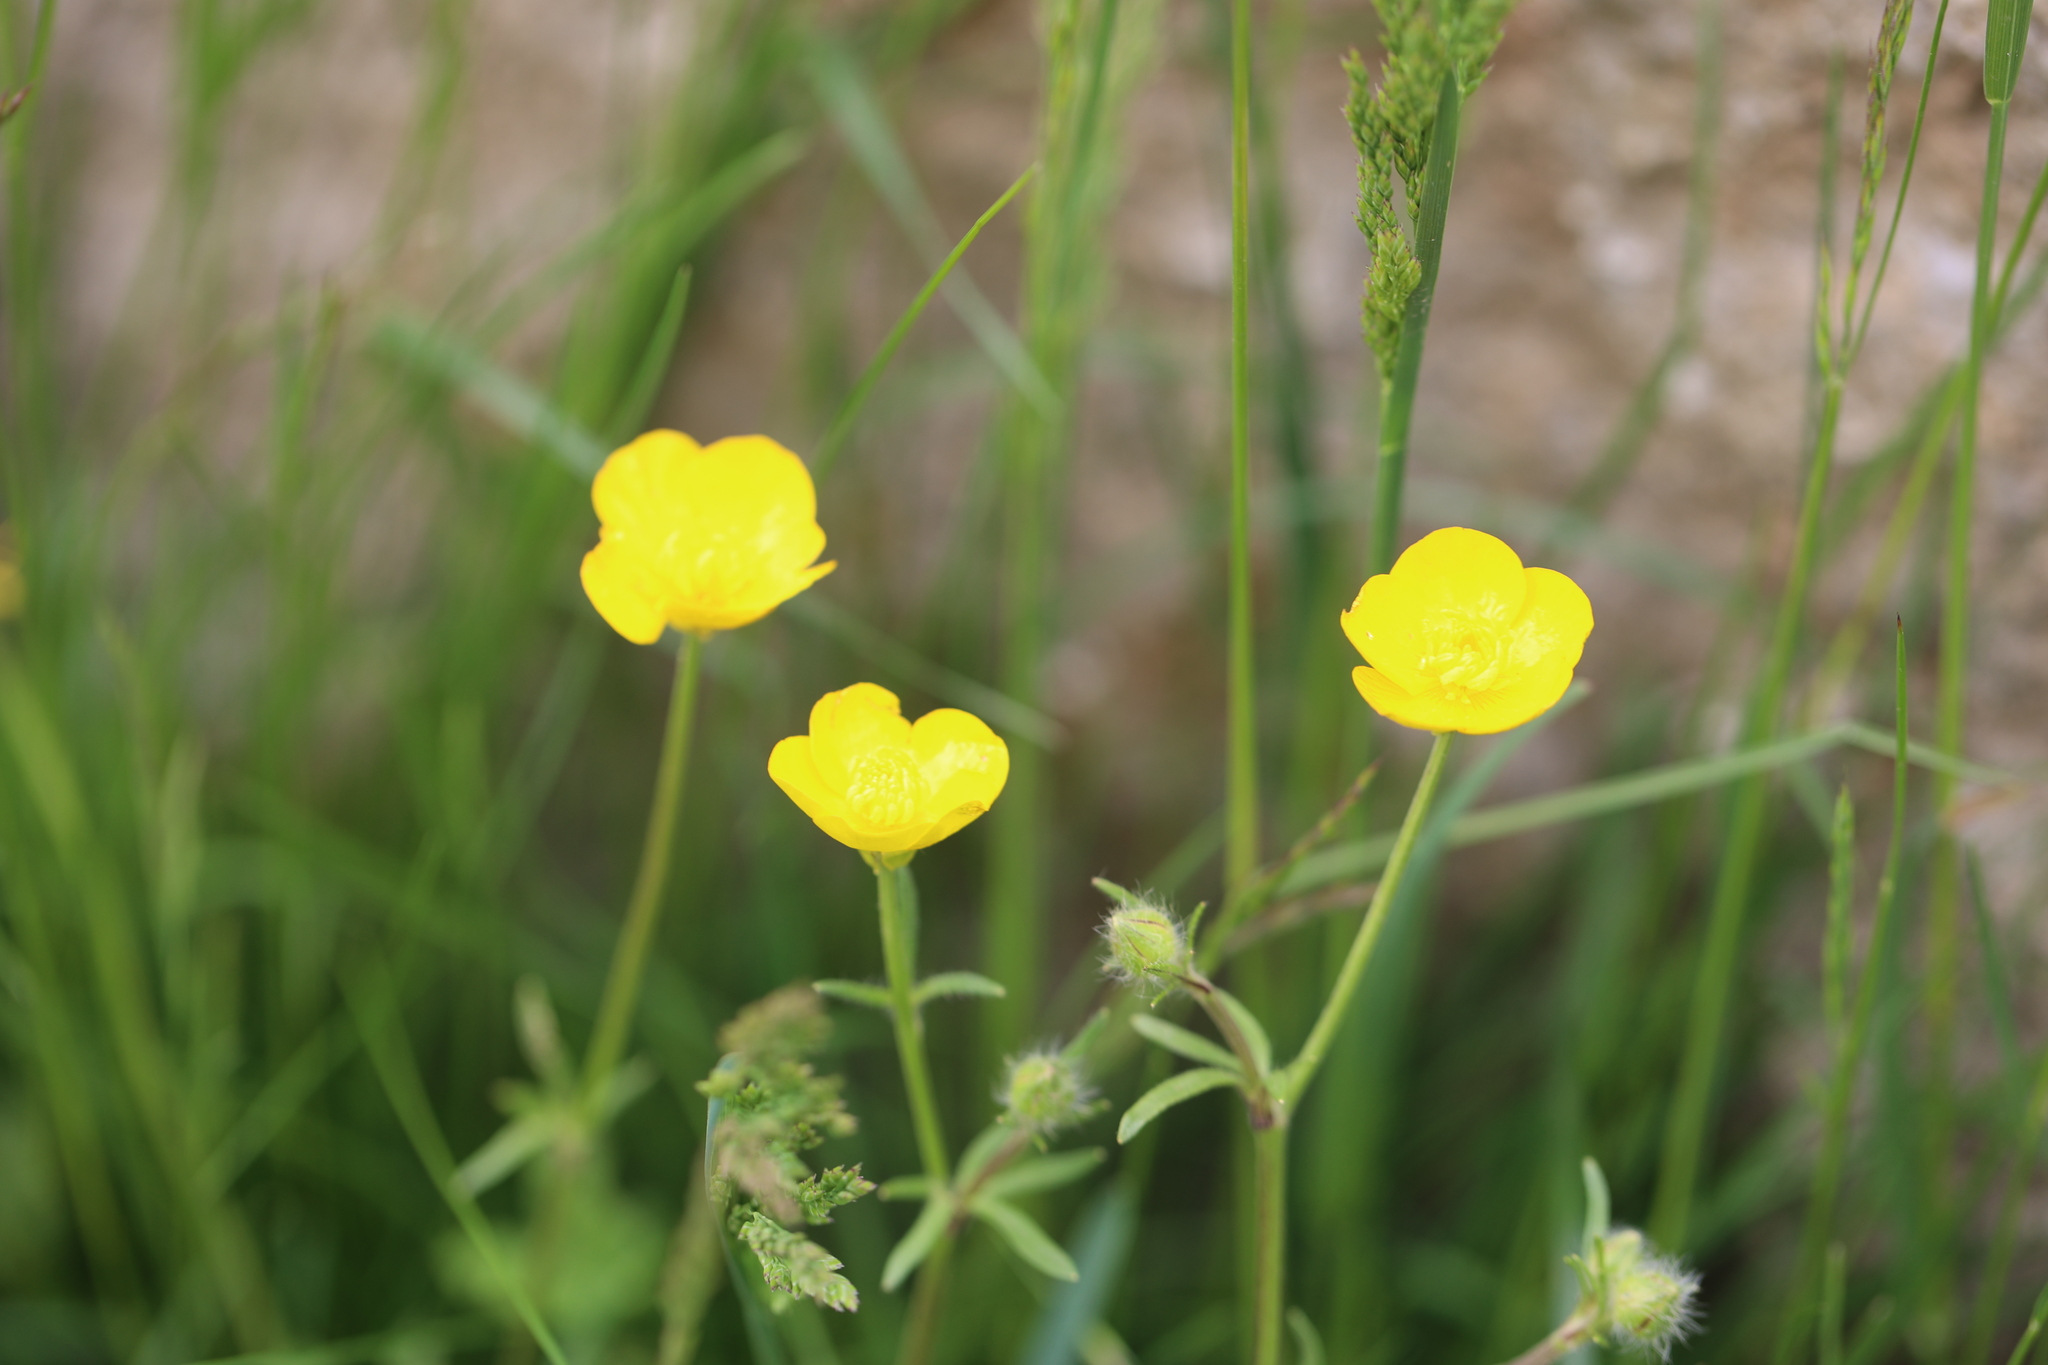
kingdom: Plantae
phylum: Tracheophyta
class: Magnoliopsida
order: Ranunculales
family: Ranunculaceae
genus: Ranunculus
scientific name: Ranunculus bulbosus
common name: Bulbous buttercup
